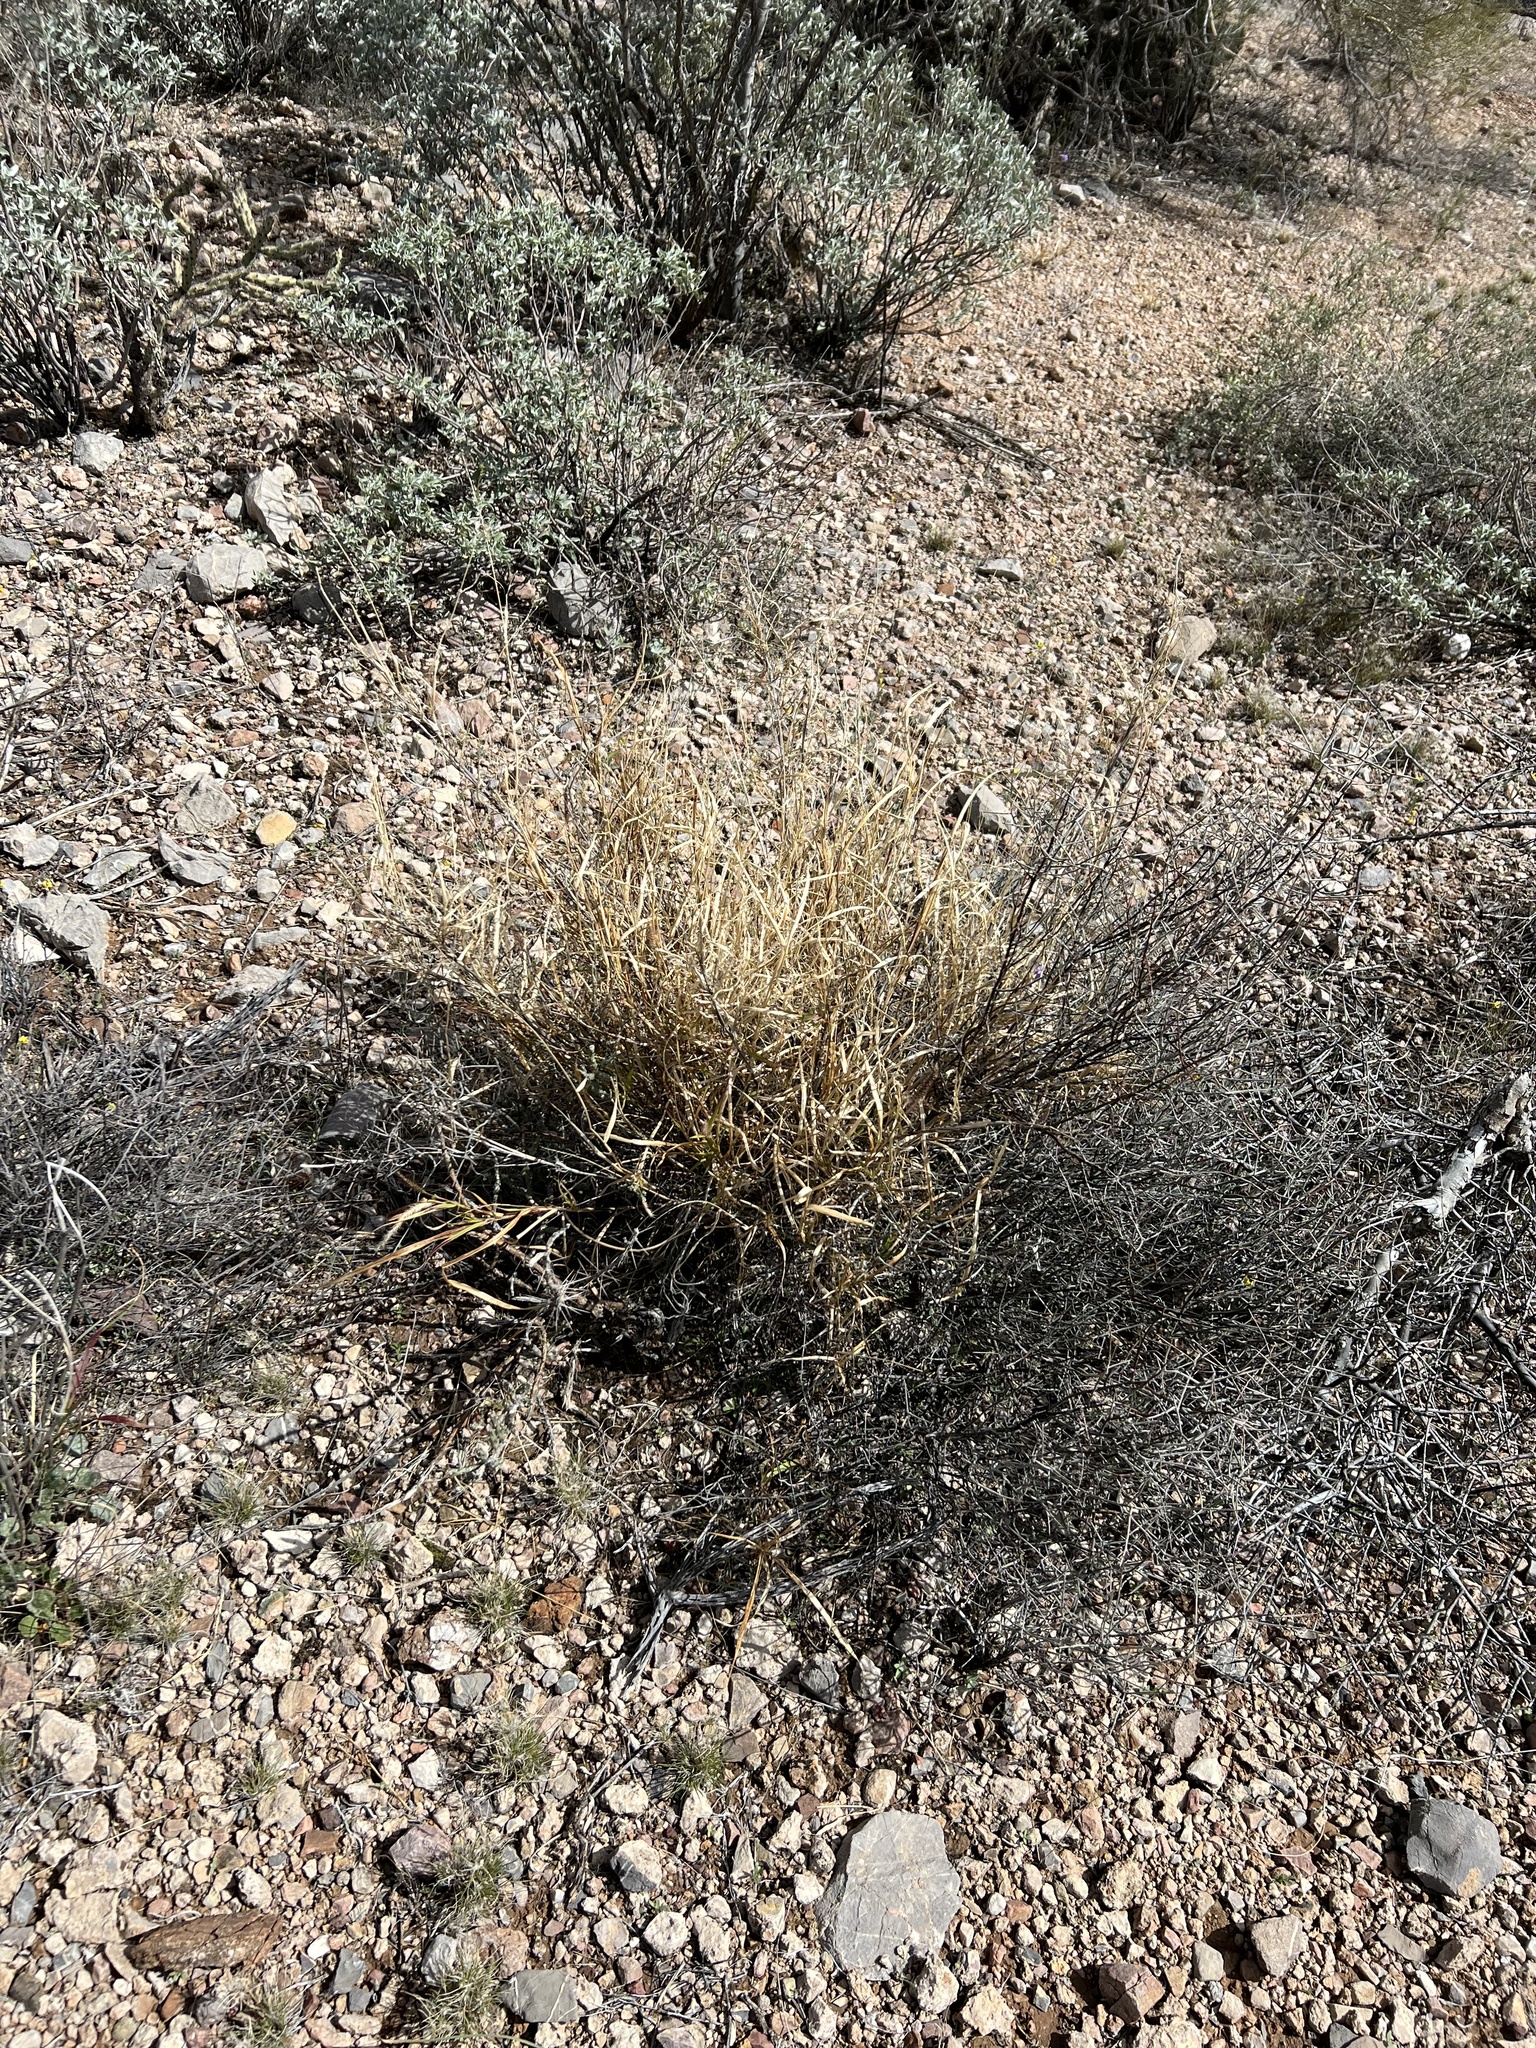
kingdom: Plantae
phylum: Tracheophyta
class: Liliopsida
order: Poales
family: Poaceae
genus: Cenchrus
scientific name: Cenchrus ciliaris
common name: Buffelgrass
